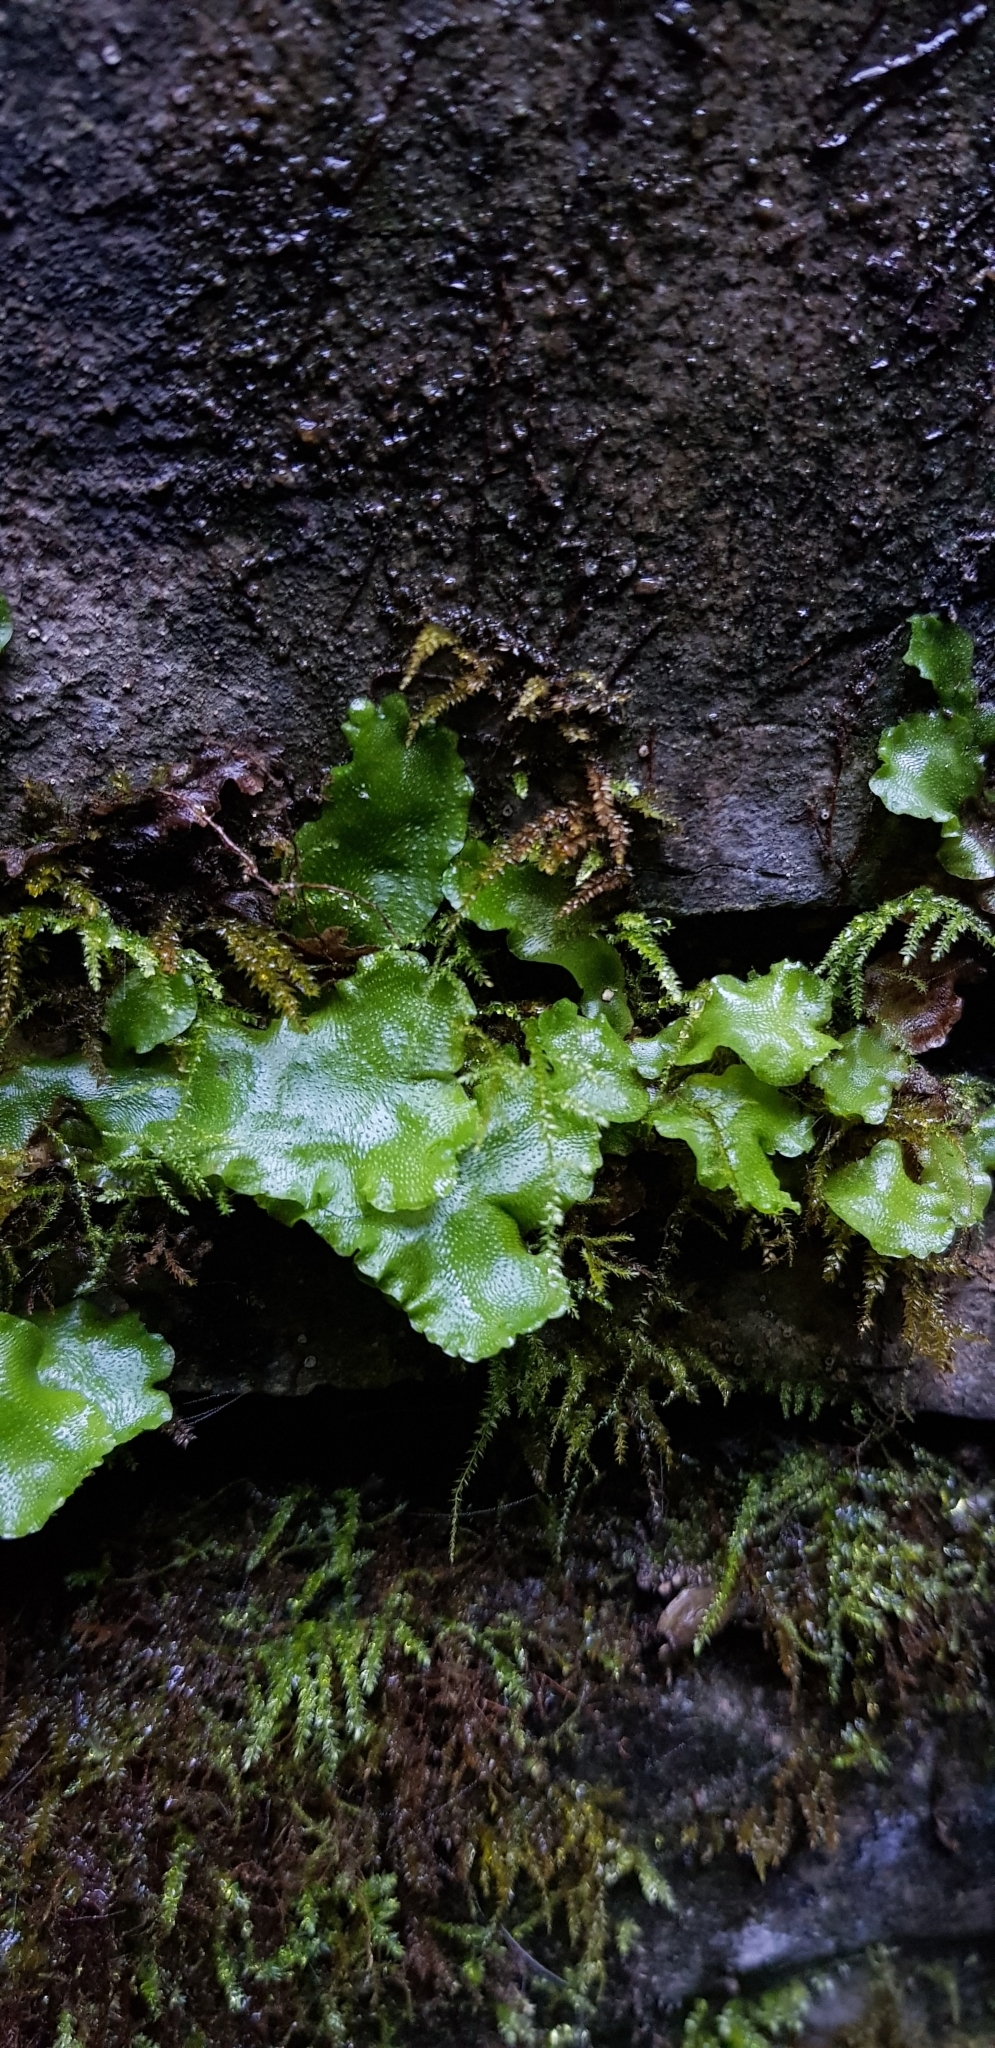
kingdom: Plantae
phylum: Marchantiophyta
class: Marchantiopsida
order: Lunulariales
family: Lunulariaceae
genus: Lunularia
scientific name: Lunularia cruciata
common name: Crescent-cup liverwort
